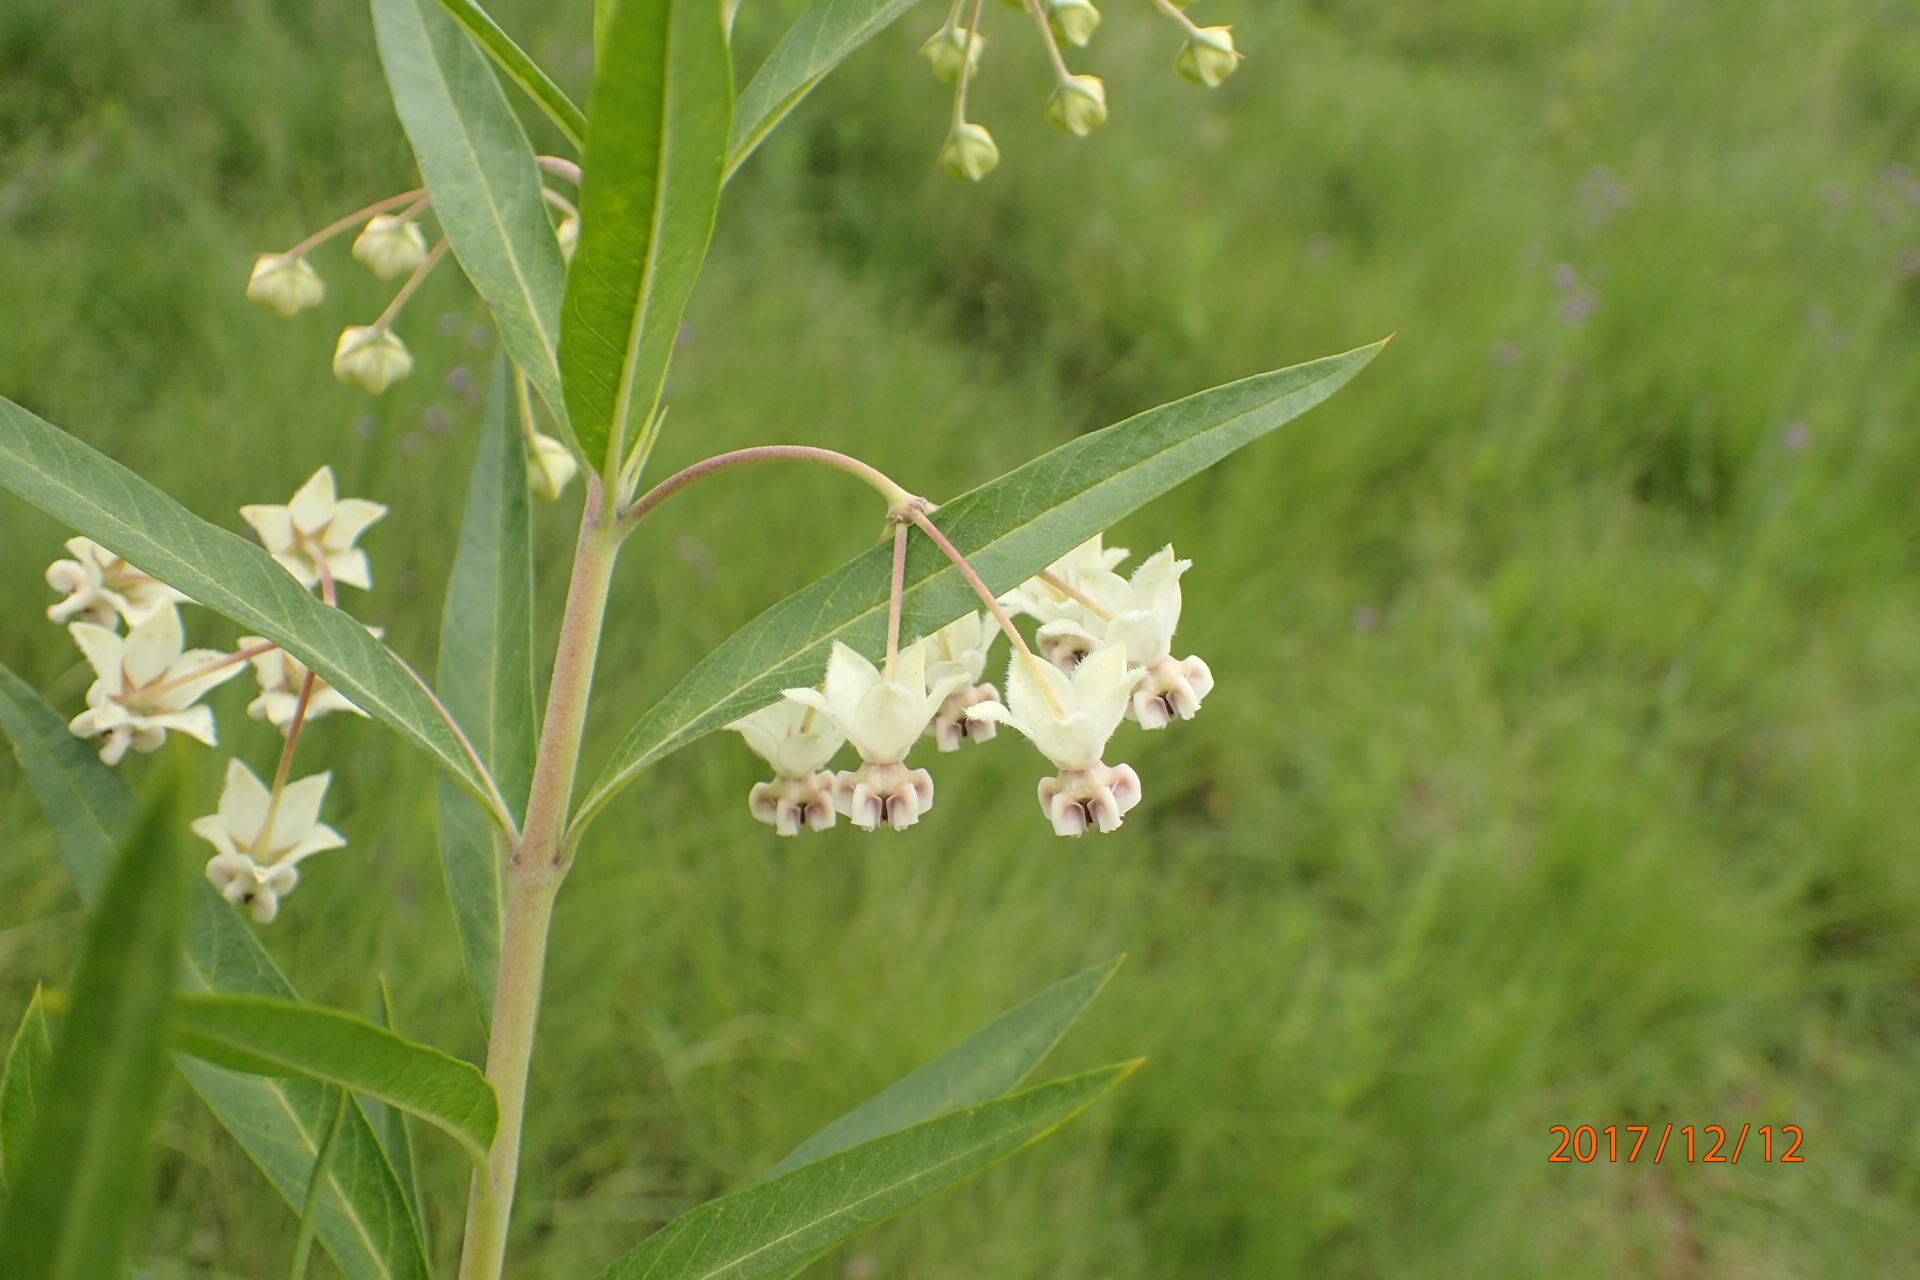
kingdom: Plantae
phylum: Tracheophyta
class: Magnoliopsida
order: Gentianales
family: Apocynaceae
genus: Gomphocarpus
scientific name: Gomphocarpus physocarpus
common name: Balloon cotton bush
